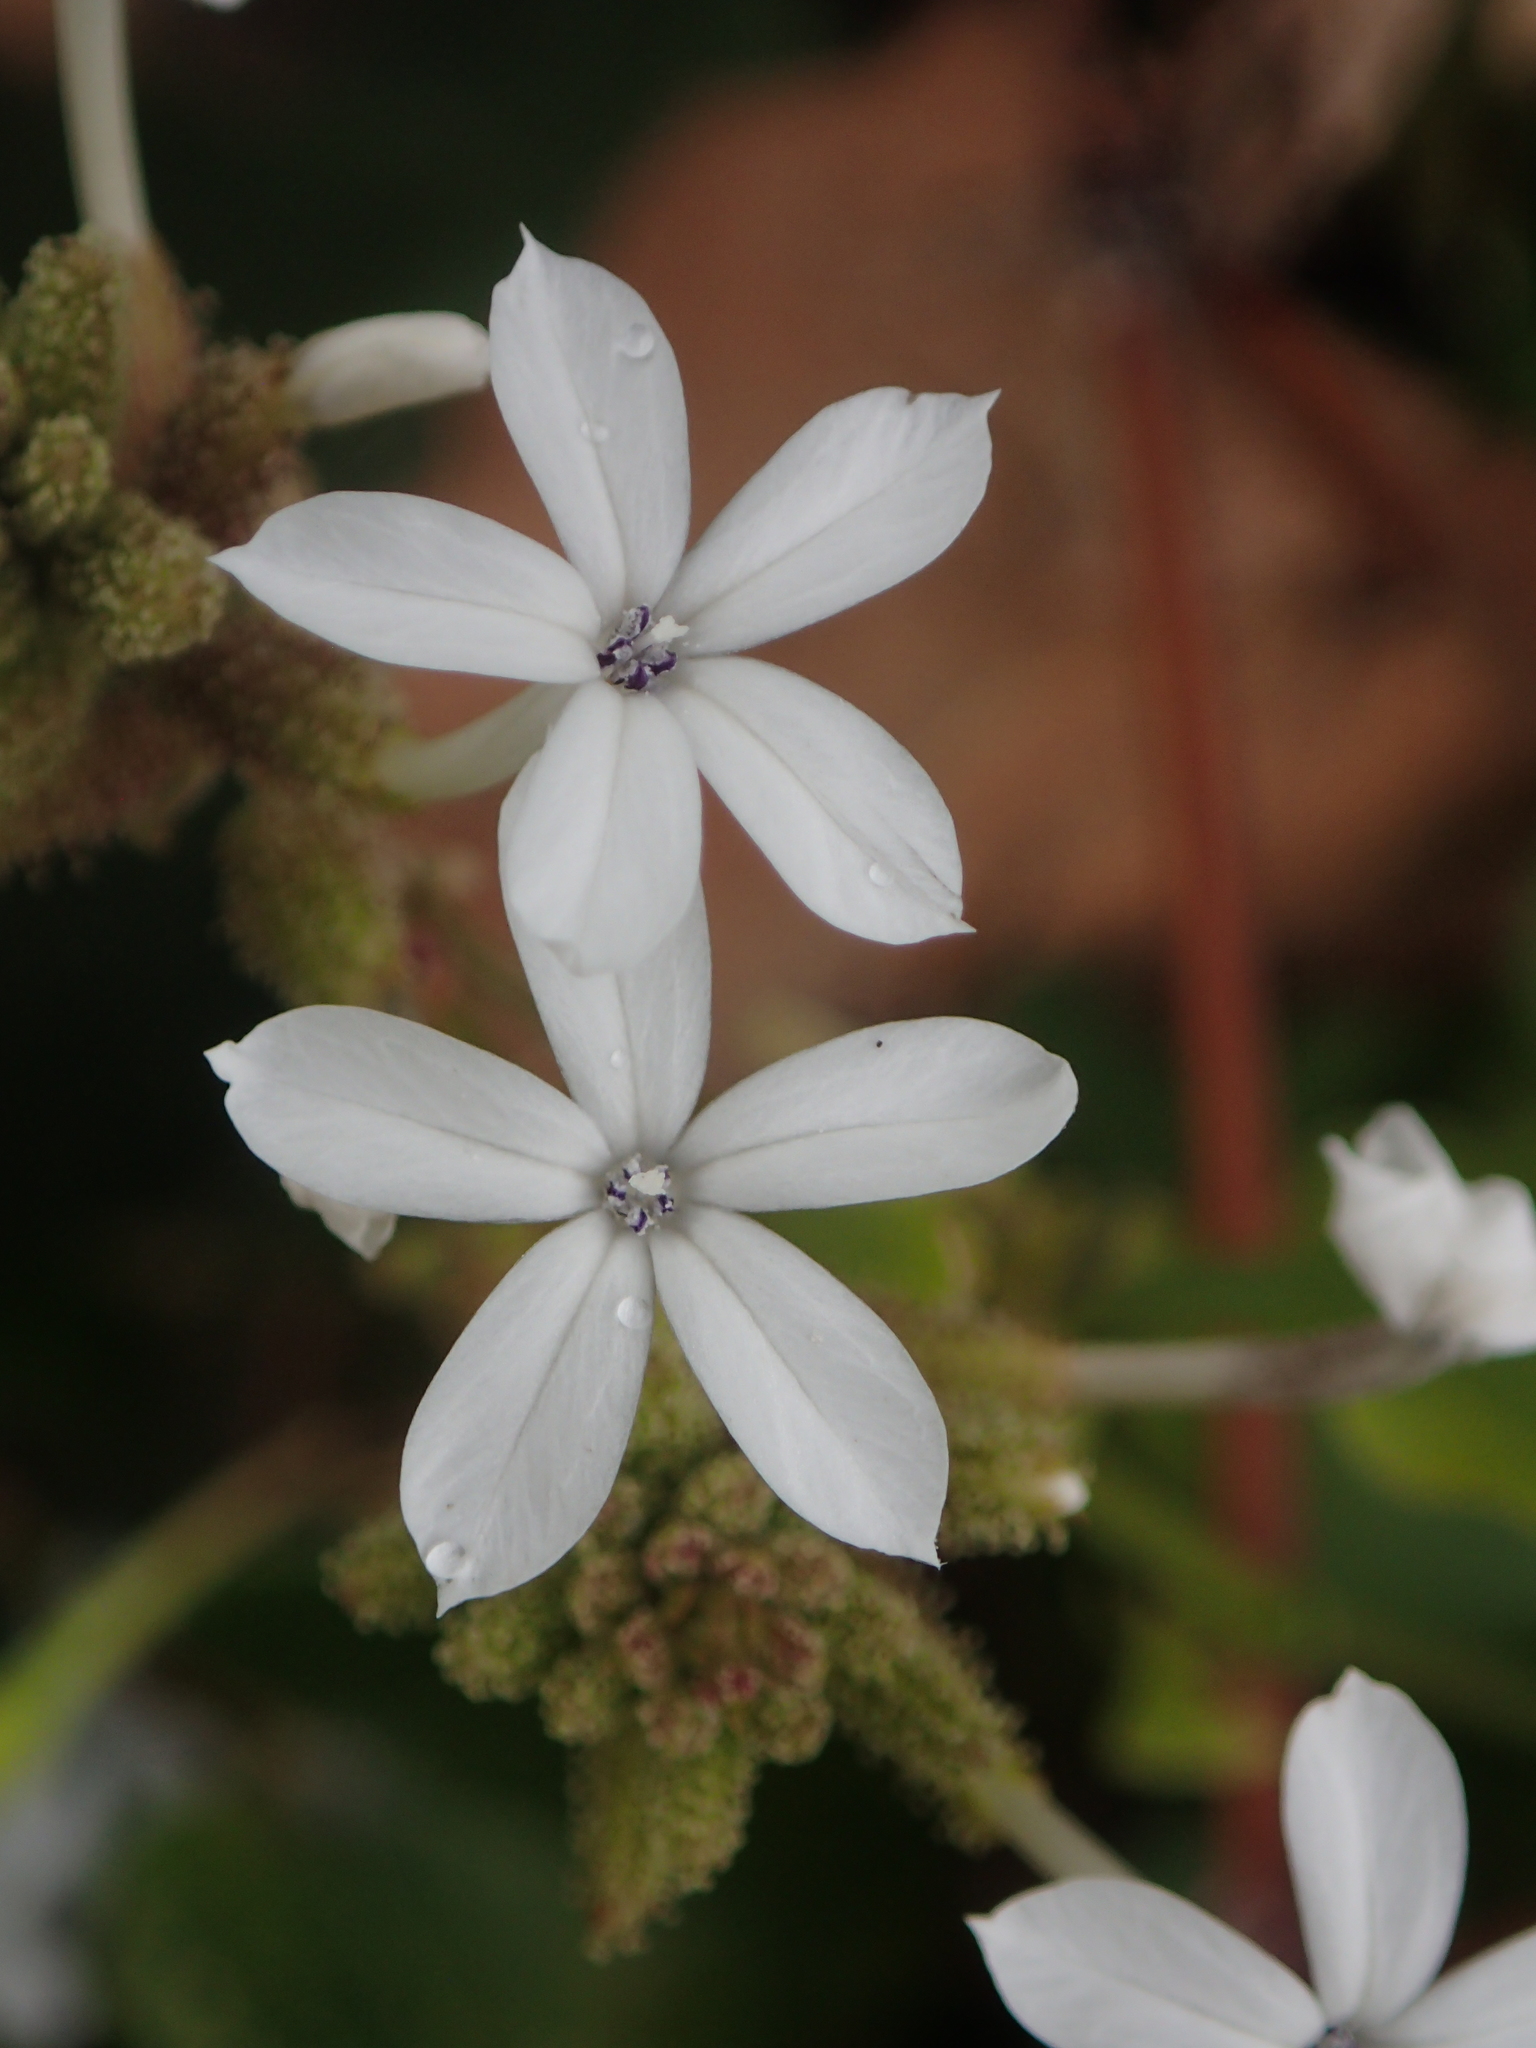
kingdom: Plantae
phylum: Tracheophyta
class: Magnoliopsida
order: Caryophyllales
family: Plumbaginaceae
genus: Plumbago
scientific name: Plumbago zeylanica
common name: Doctorbush
